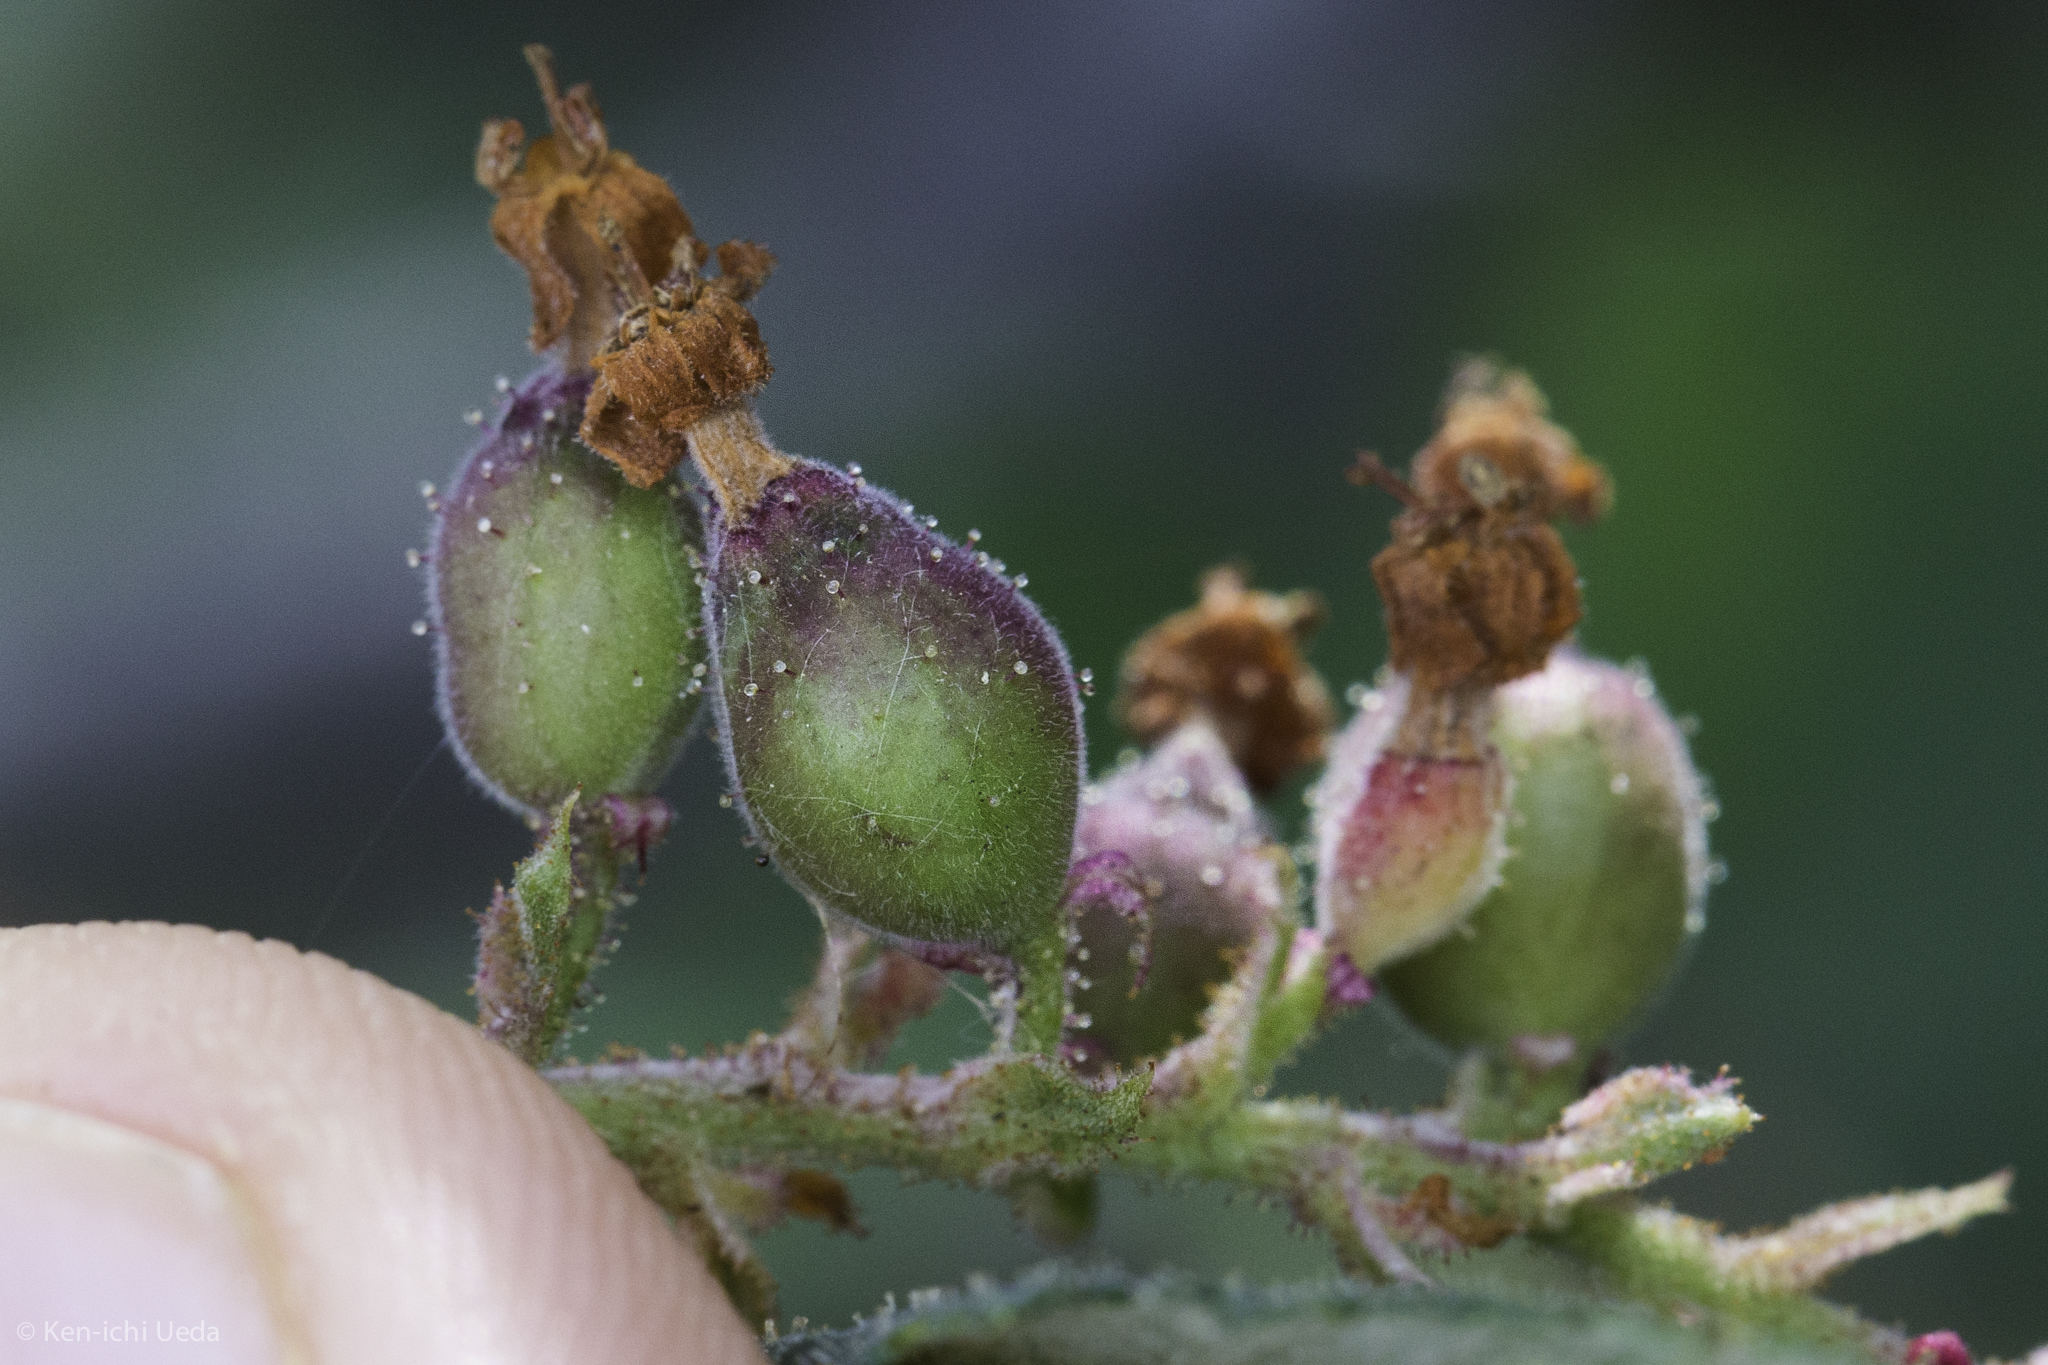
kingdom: Plantae
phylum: Tracheophyta
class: Magnoliopsida
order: Saxifragales
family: Grossulariaceae
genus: Ribes
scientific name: Ribes malvaceum
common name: Chaparral currant
